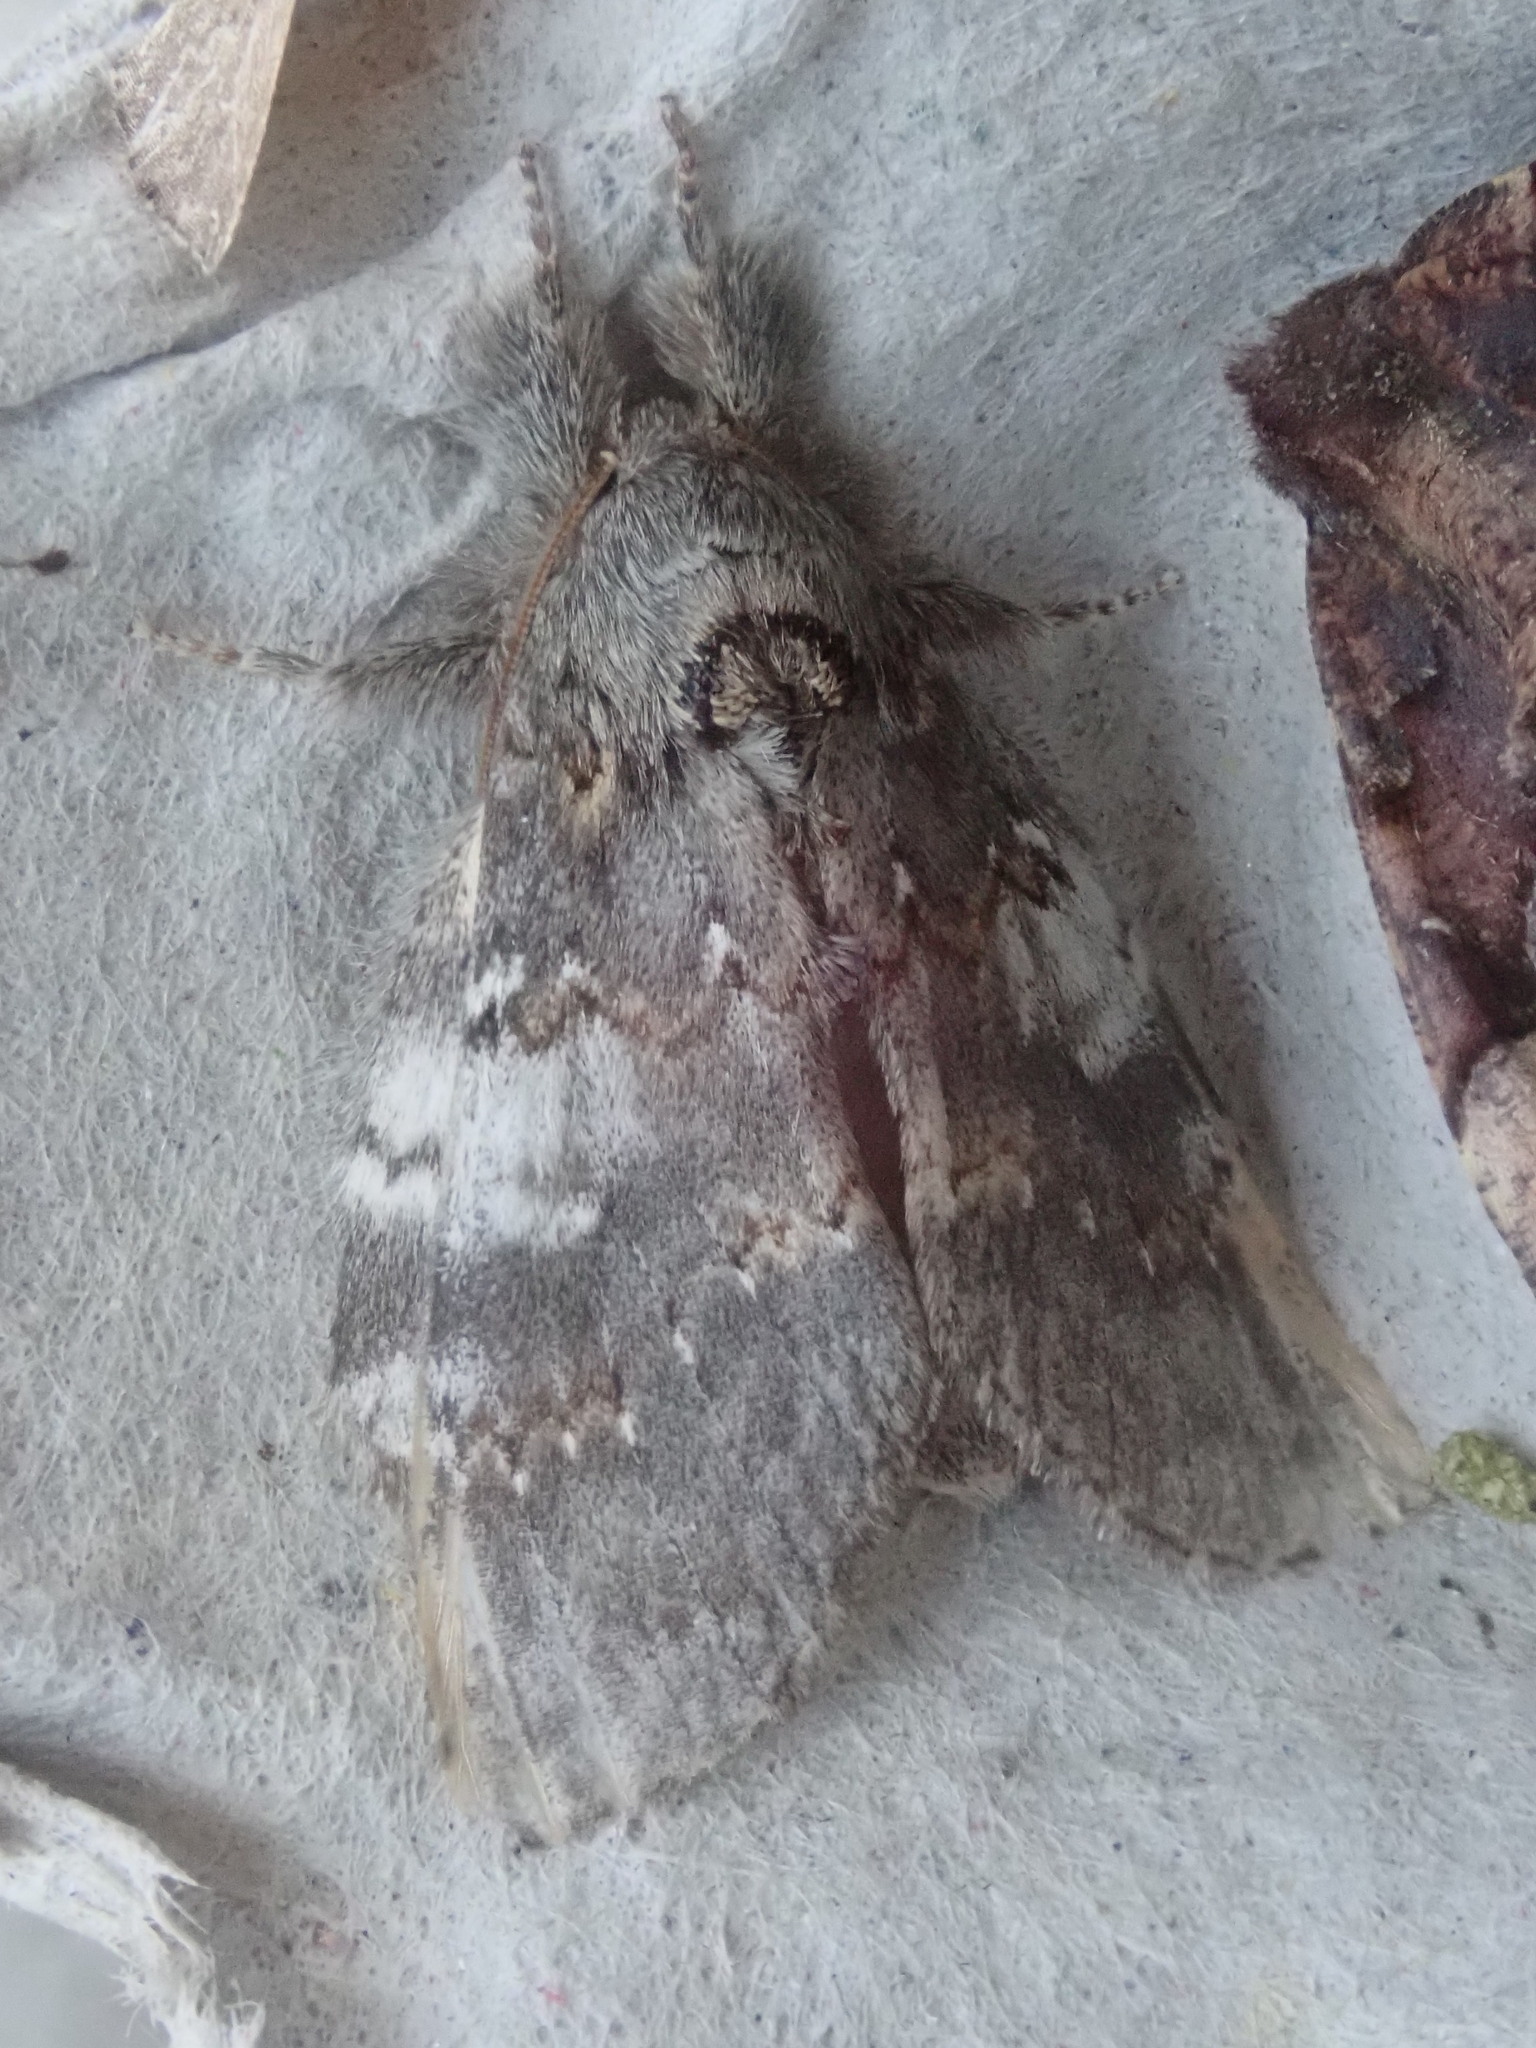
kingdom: Animalia
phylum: Arthropoda
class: Insecta
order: Lepidoptera
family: Notodontidae
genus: Peridea
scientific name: Peridea angulosa
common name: Angulose prominent
